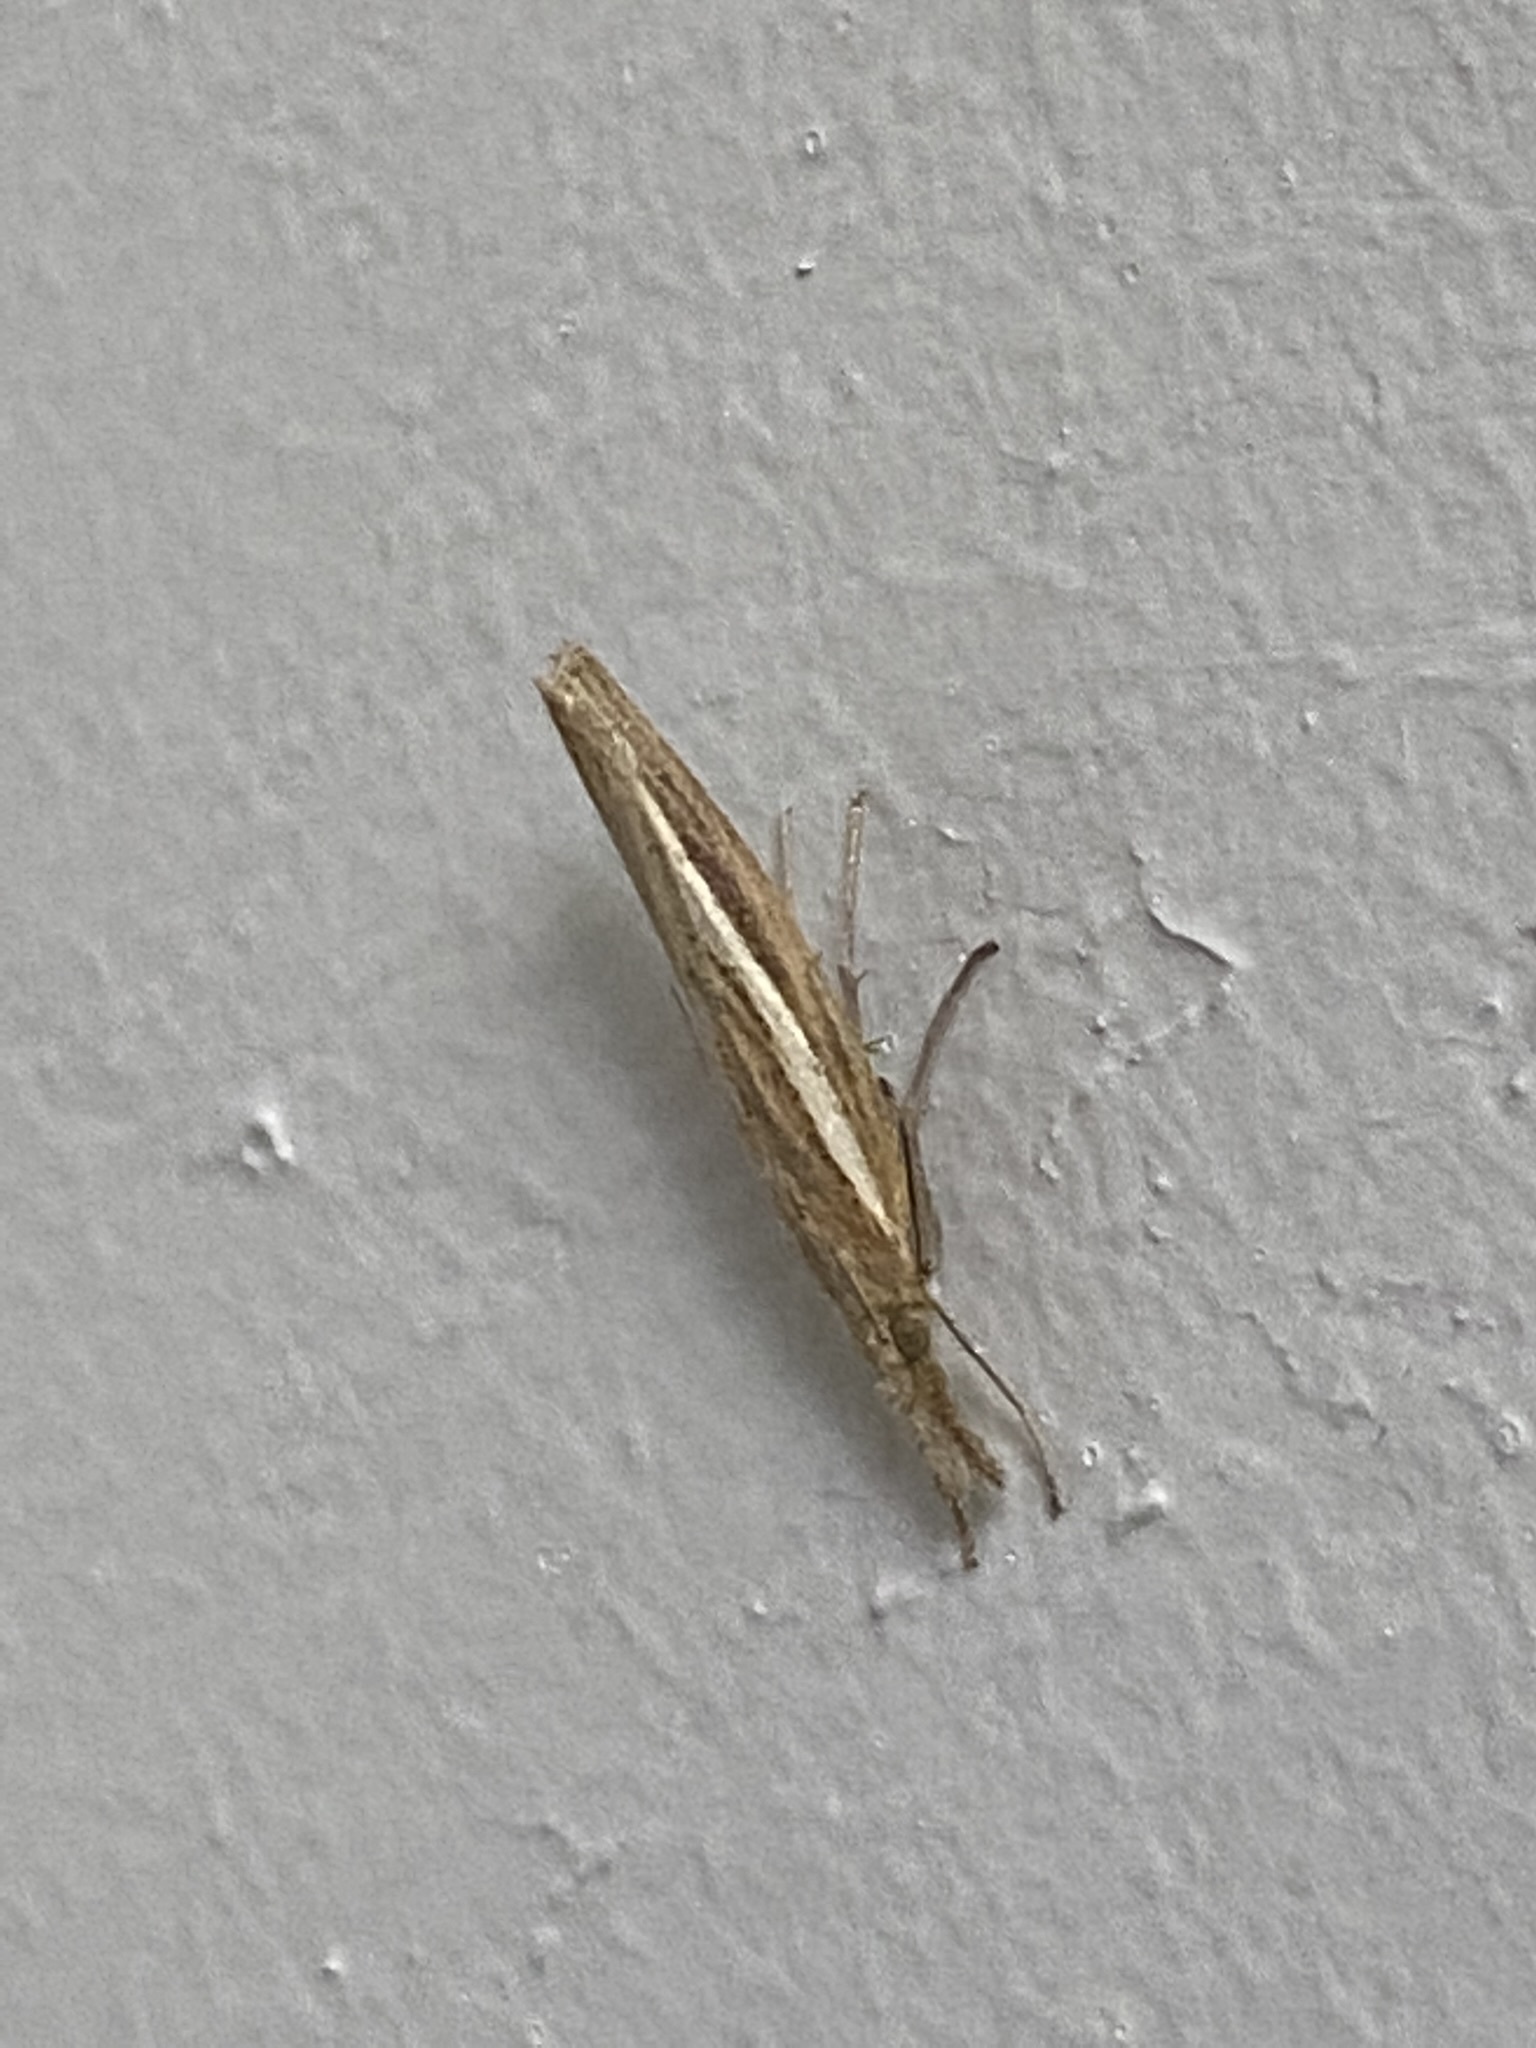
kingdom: Animalia
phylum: Arthropoda
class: Insecta
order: Lepidoptera
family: Crambidae
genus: Agriphila
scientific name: Agriphila tristellus
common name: Common grass-veneer
